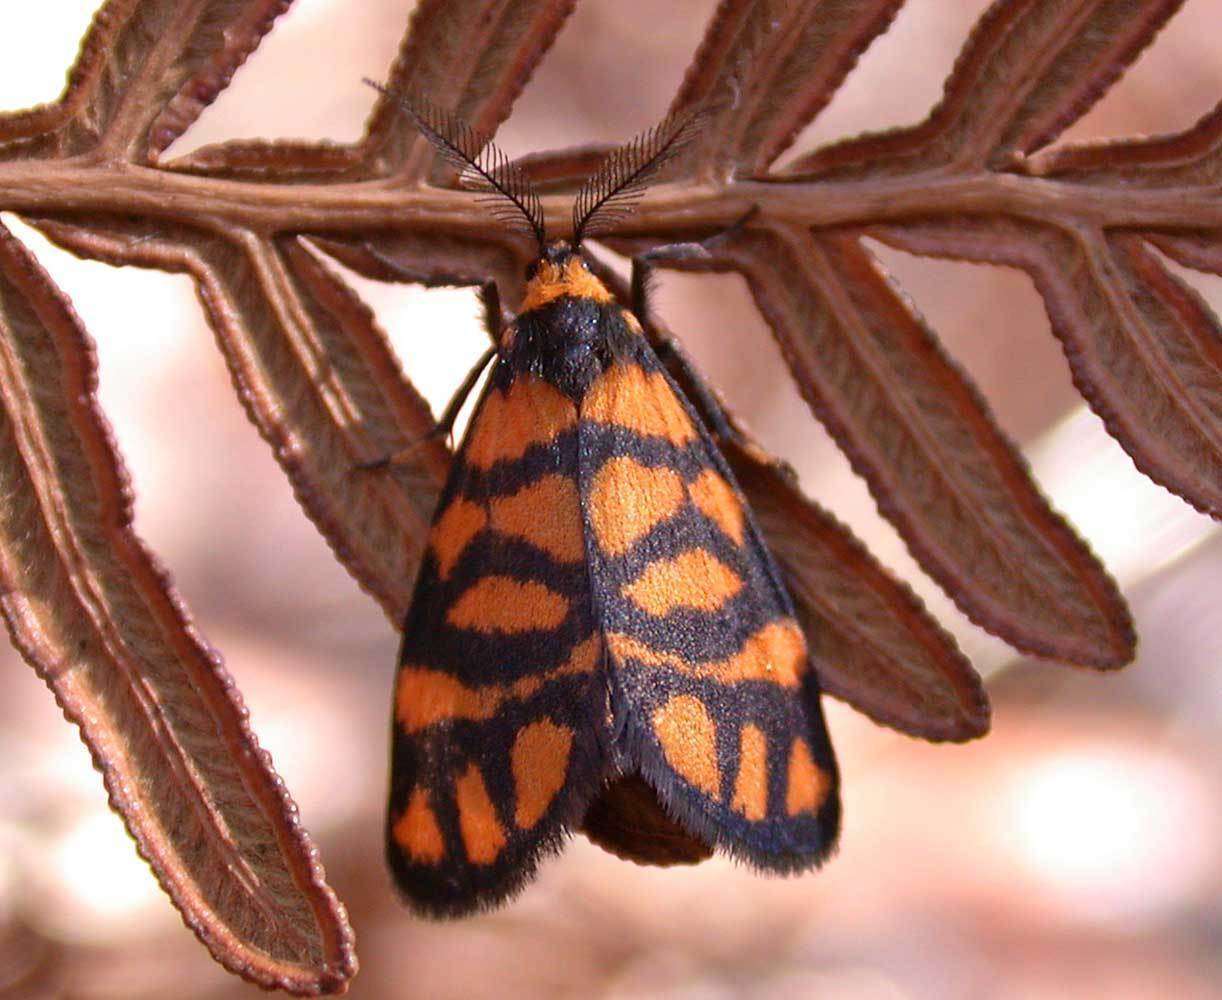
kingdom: Animalia
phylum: Arthropoda
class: Insecta
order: Lepidoptera
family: Erebidae
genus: Asura
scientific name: Asura lydia
